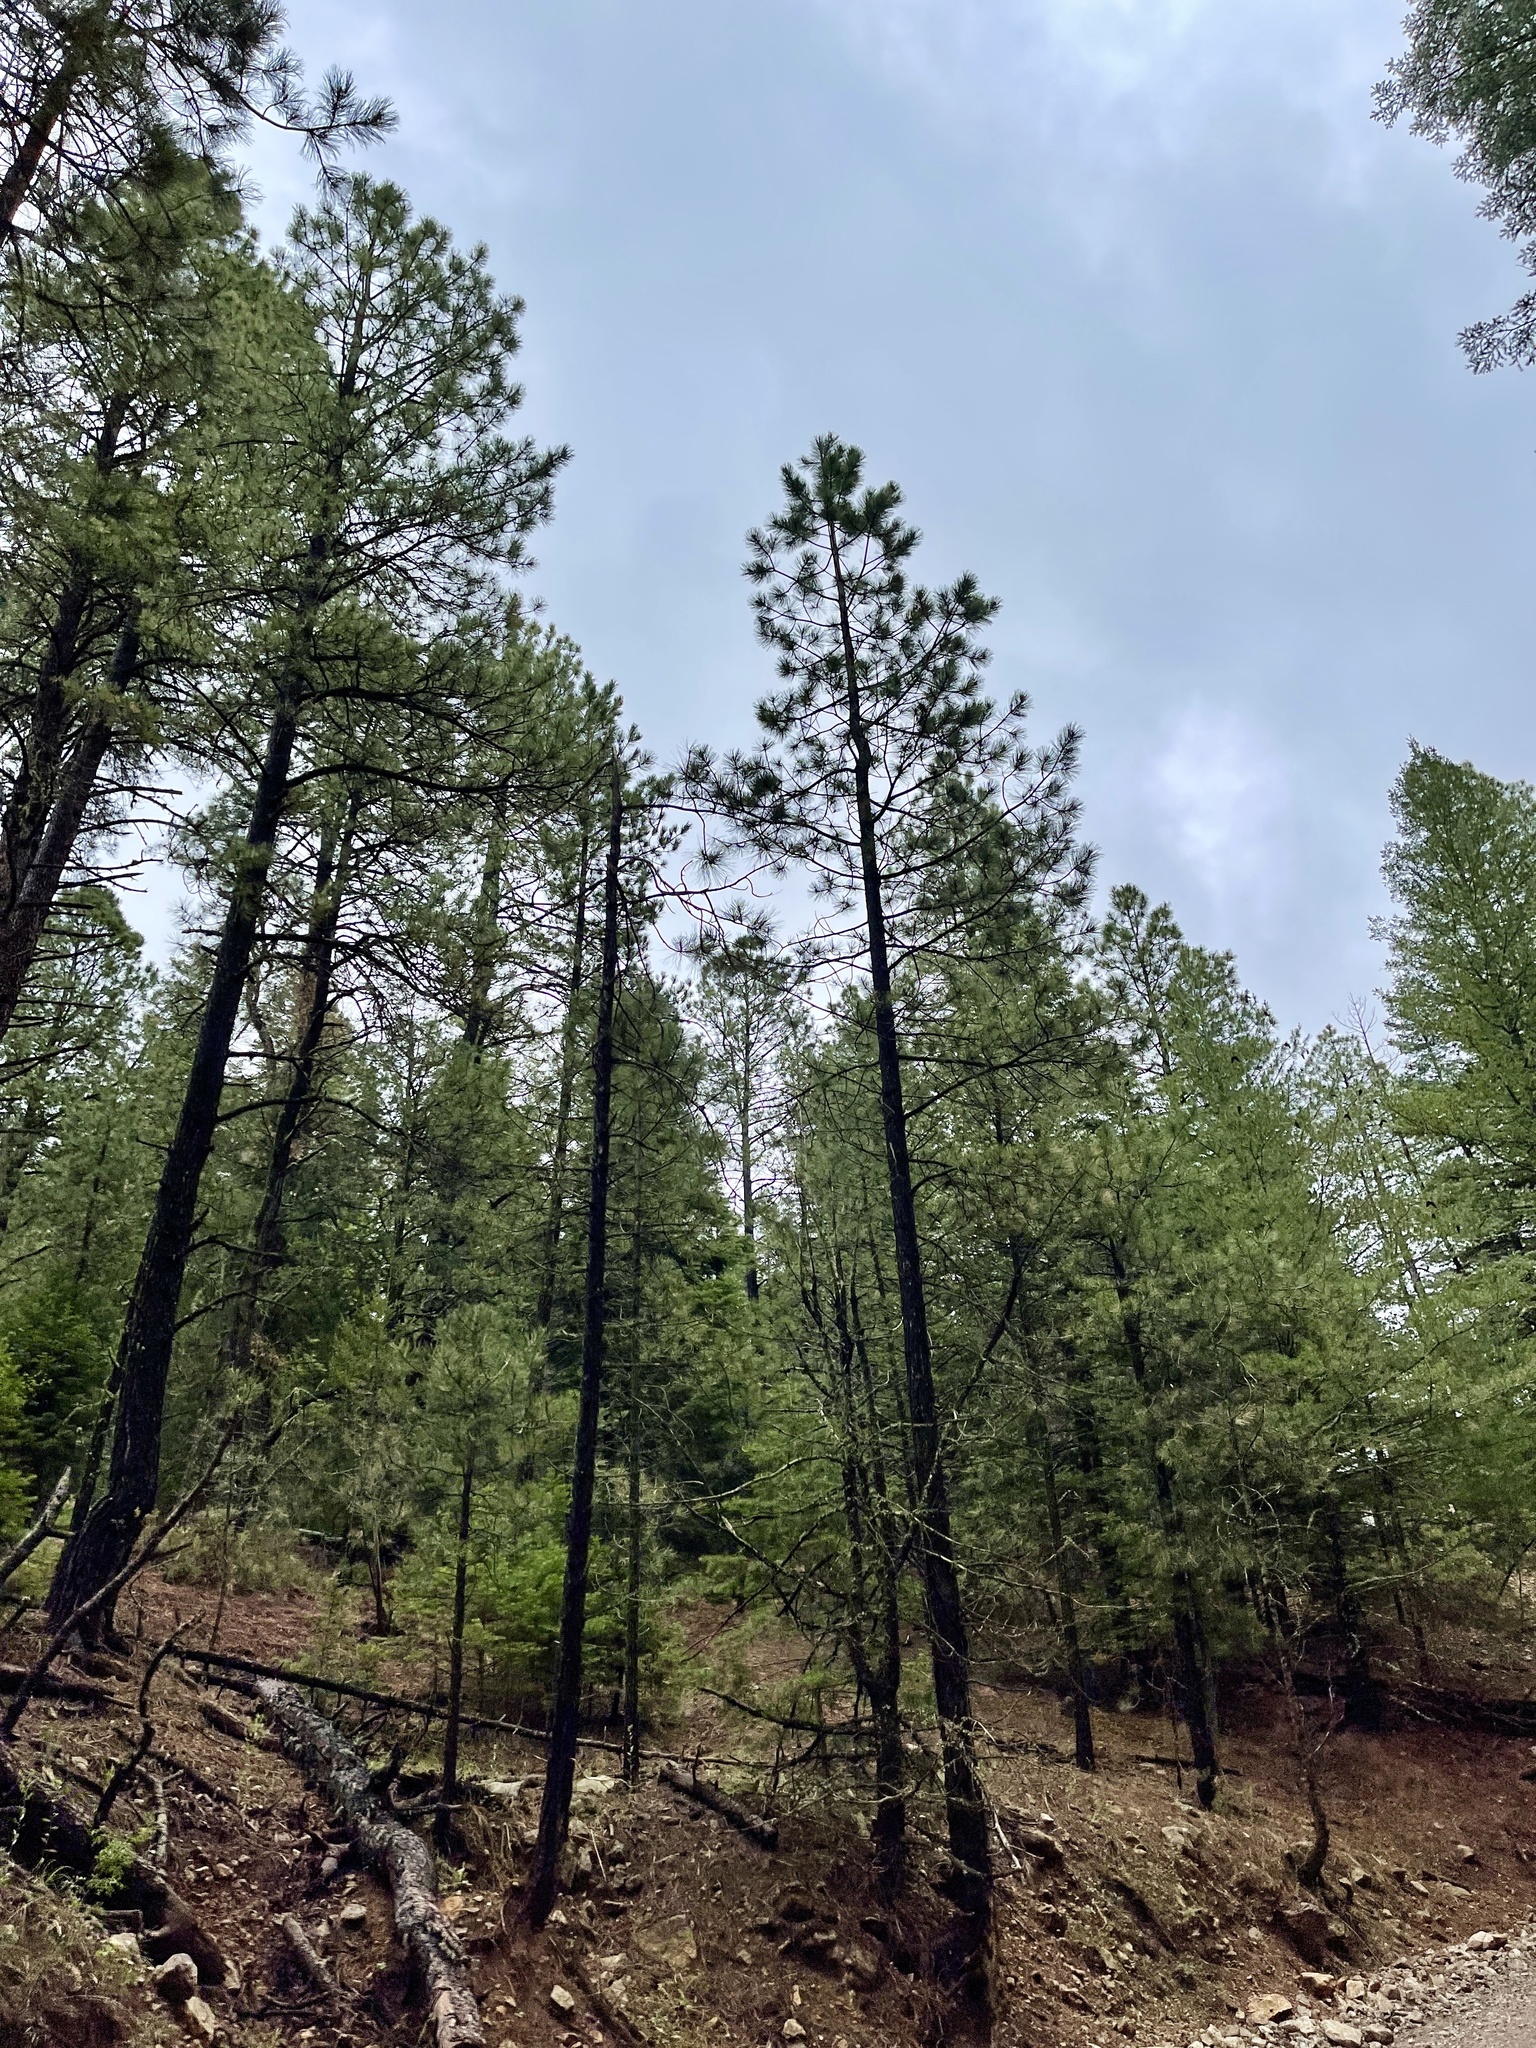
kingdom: Plantae
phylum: Tracheophyta
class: Pinopsida
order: Pinales
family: Pinaceae
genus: Pinus
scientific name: Pinus ponderosa
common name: Western yellow-pine
